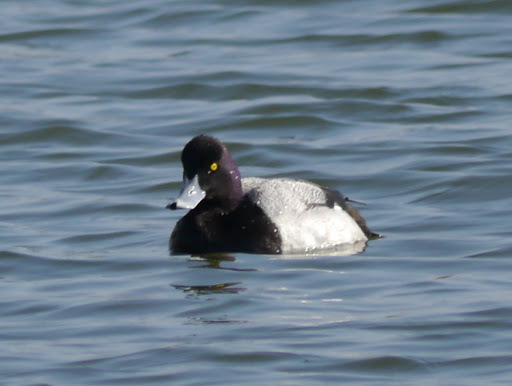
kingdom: Animalia
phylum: Chordata
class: Aves
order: Anseriformes
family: Anatidae
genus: Aythya
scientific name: Aythya affinis
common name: Lesser scaup
